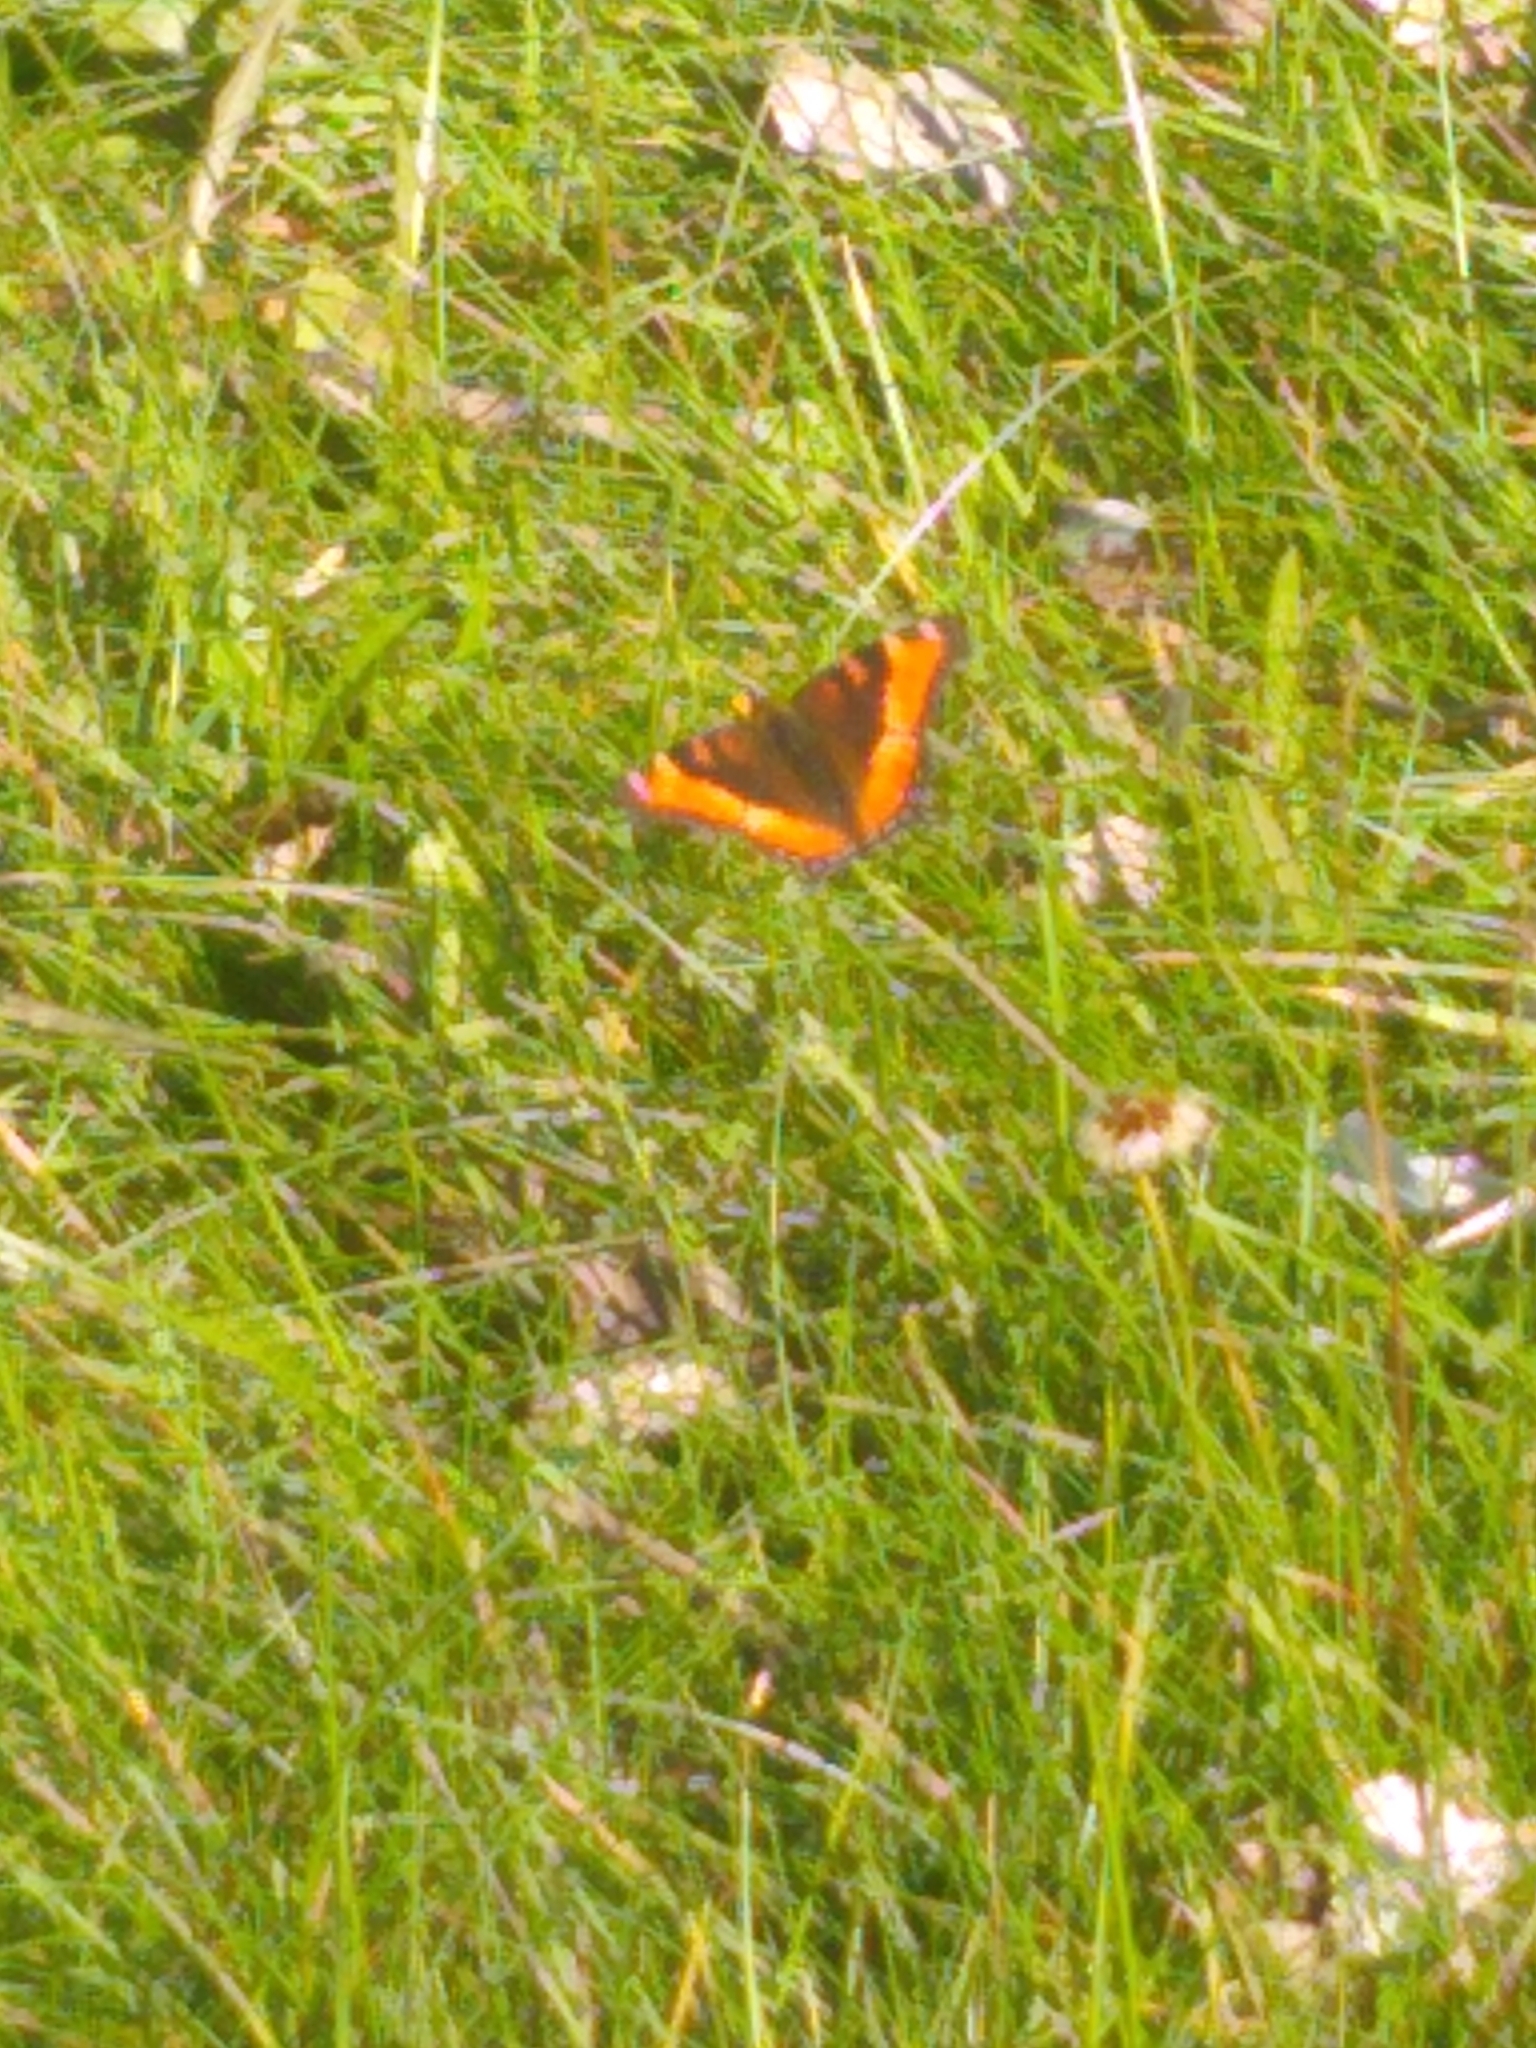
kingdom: Animalia
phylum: Arthropoda
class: Insecta
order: Lepidoptera
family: Nymphalidae
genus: Aglais
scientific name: Aglais milberti
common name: Milbert's tortoiseshell
